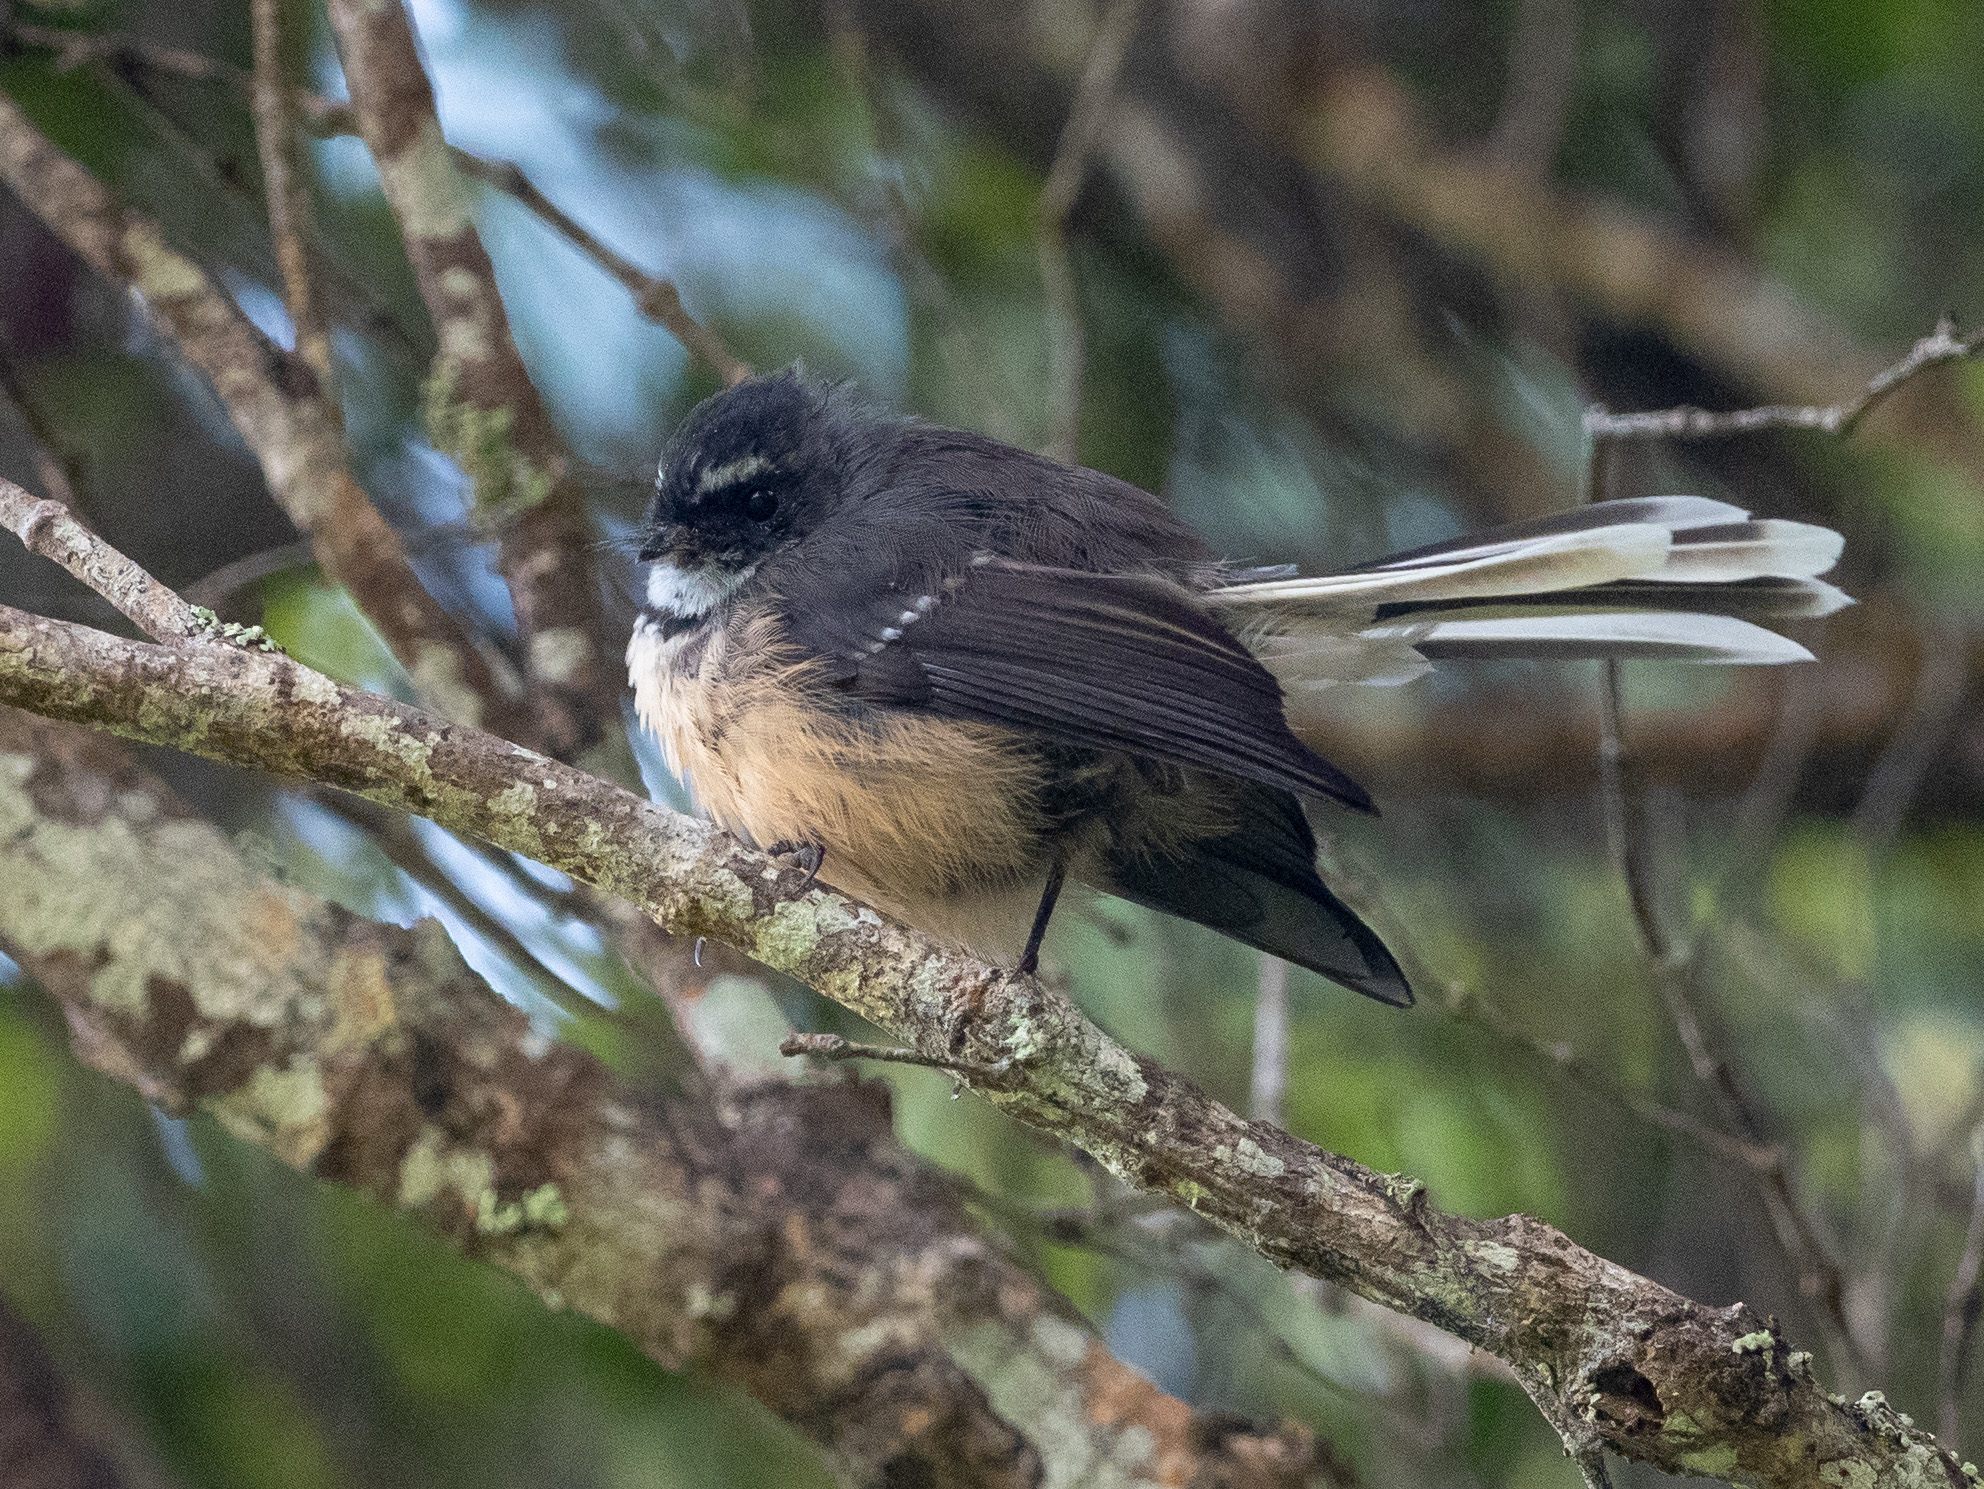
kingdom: Animalia
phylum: Chordata
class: Aves
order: Passeriformes
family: Rhipiduridae
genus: Rhipidura
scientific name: Rhipidura fuliginosa
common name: New zealand fantail
